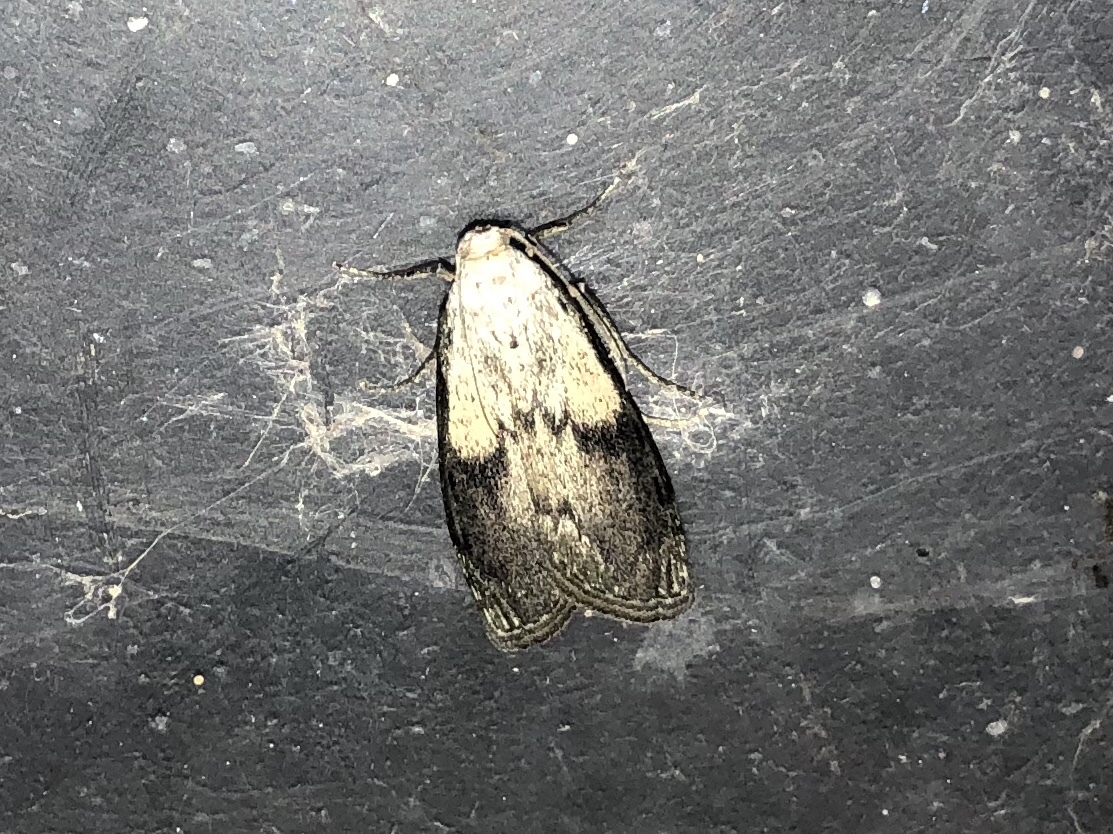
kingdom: Animalia
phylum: Arthropoda
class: Insecta
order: Lepidoptera
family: Pyralidae
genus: Aphomia
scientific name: Aphomia sociella
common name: Bee moth
